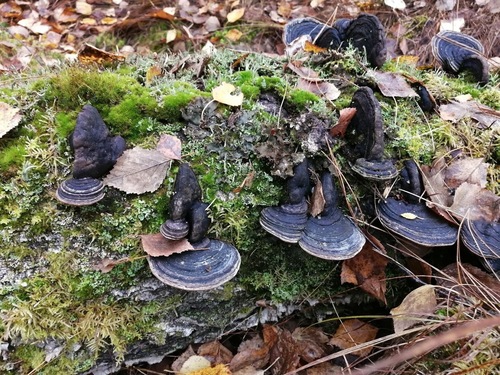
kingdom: Fungi
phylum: Basidiomycota
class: Agaricomycetes
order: Hymenochaetales
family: Hymenochaetaceae
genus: Phellinus
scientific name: Phellinus igniarius
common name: Willow bracket
